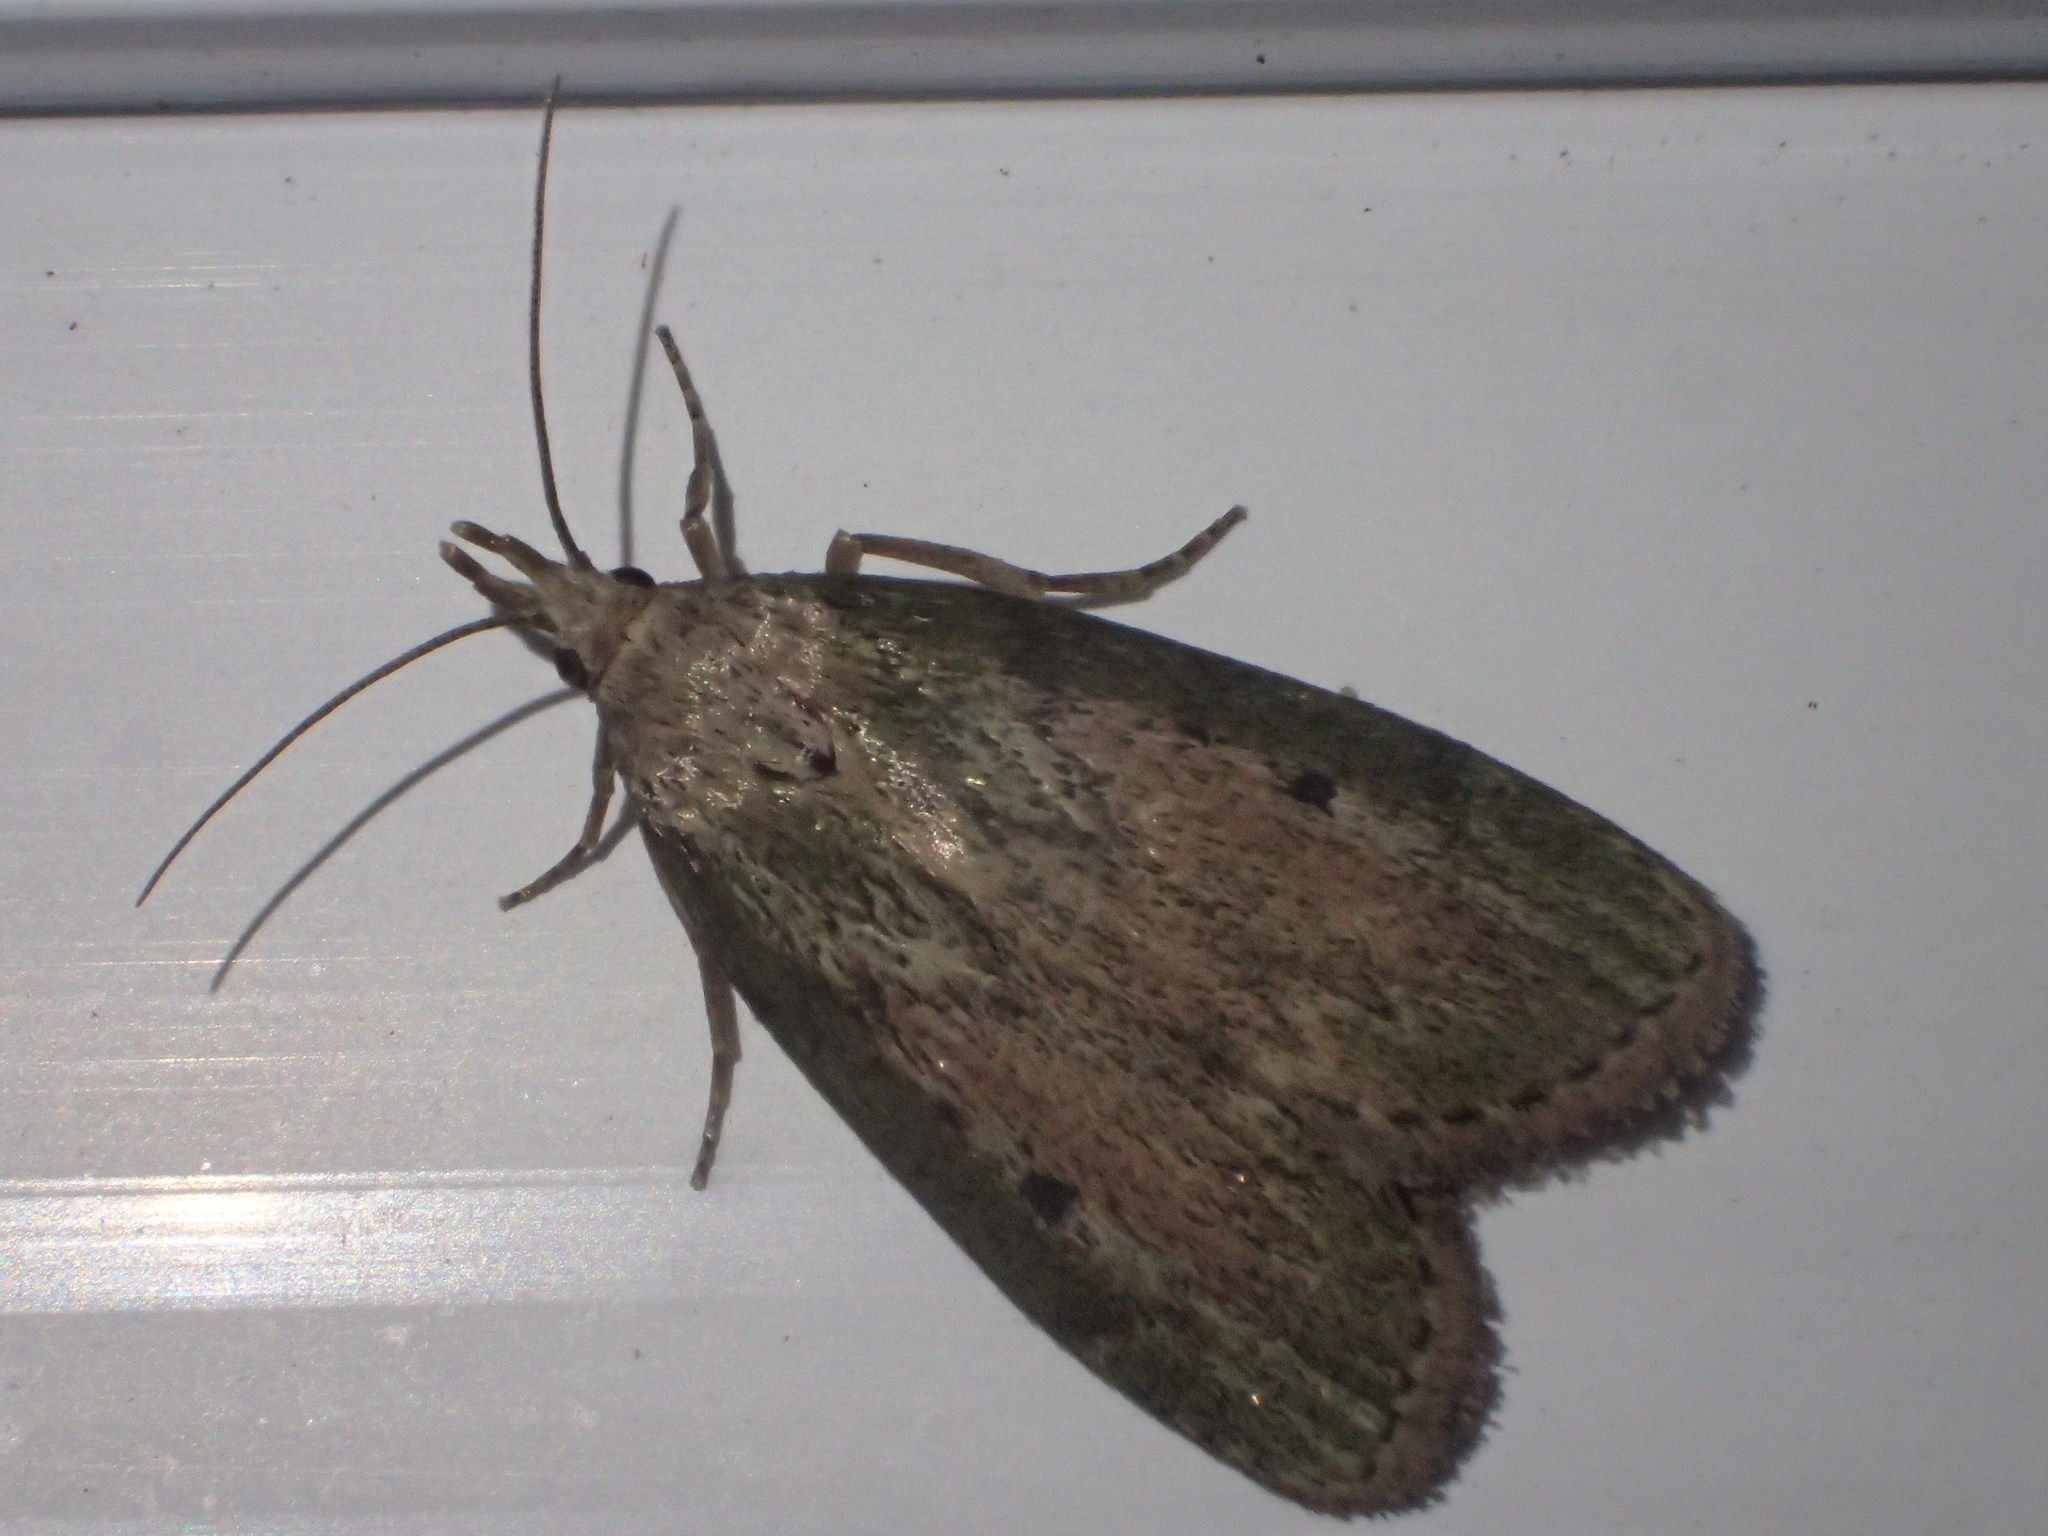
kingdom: Animalia
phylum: Arthropoda
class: Insecta
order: Lepidoptera
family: Pyralidae
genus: Aphomia
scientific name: Aphomia sociella
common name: Bee moth
